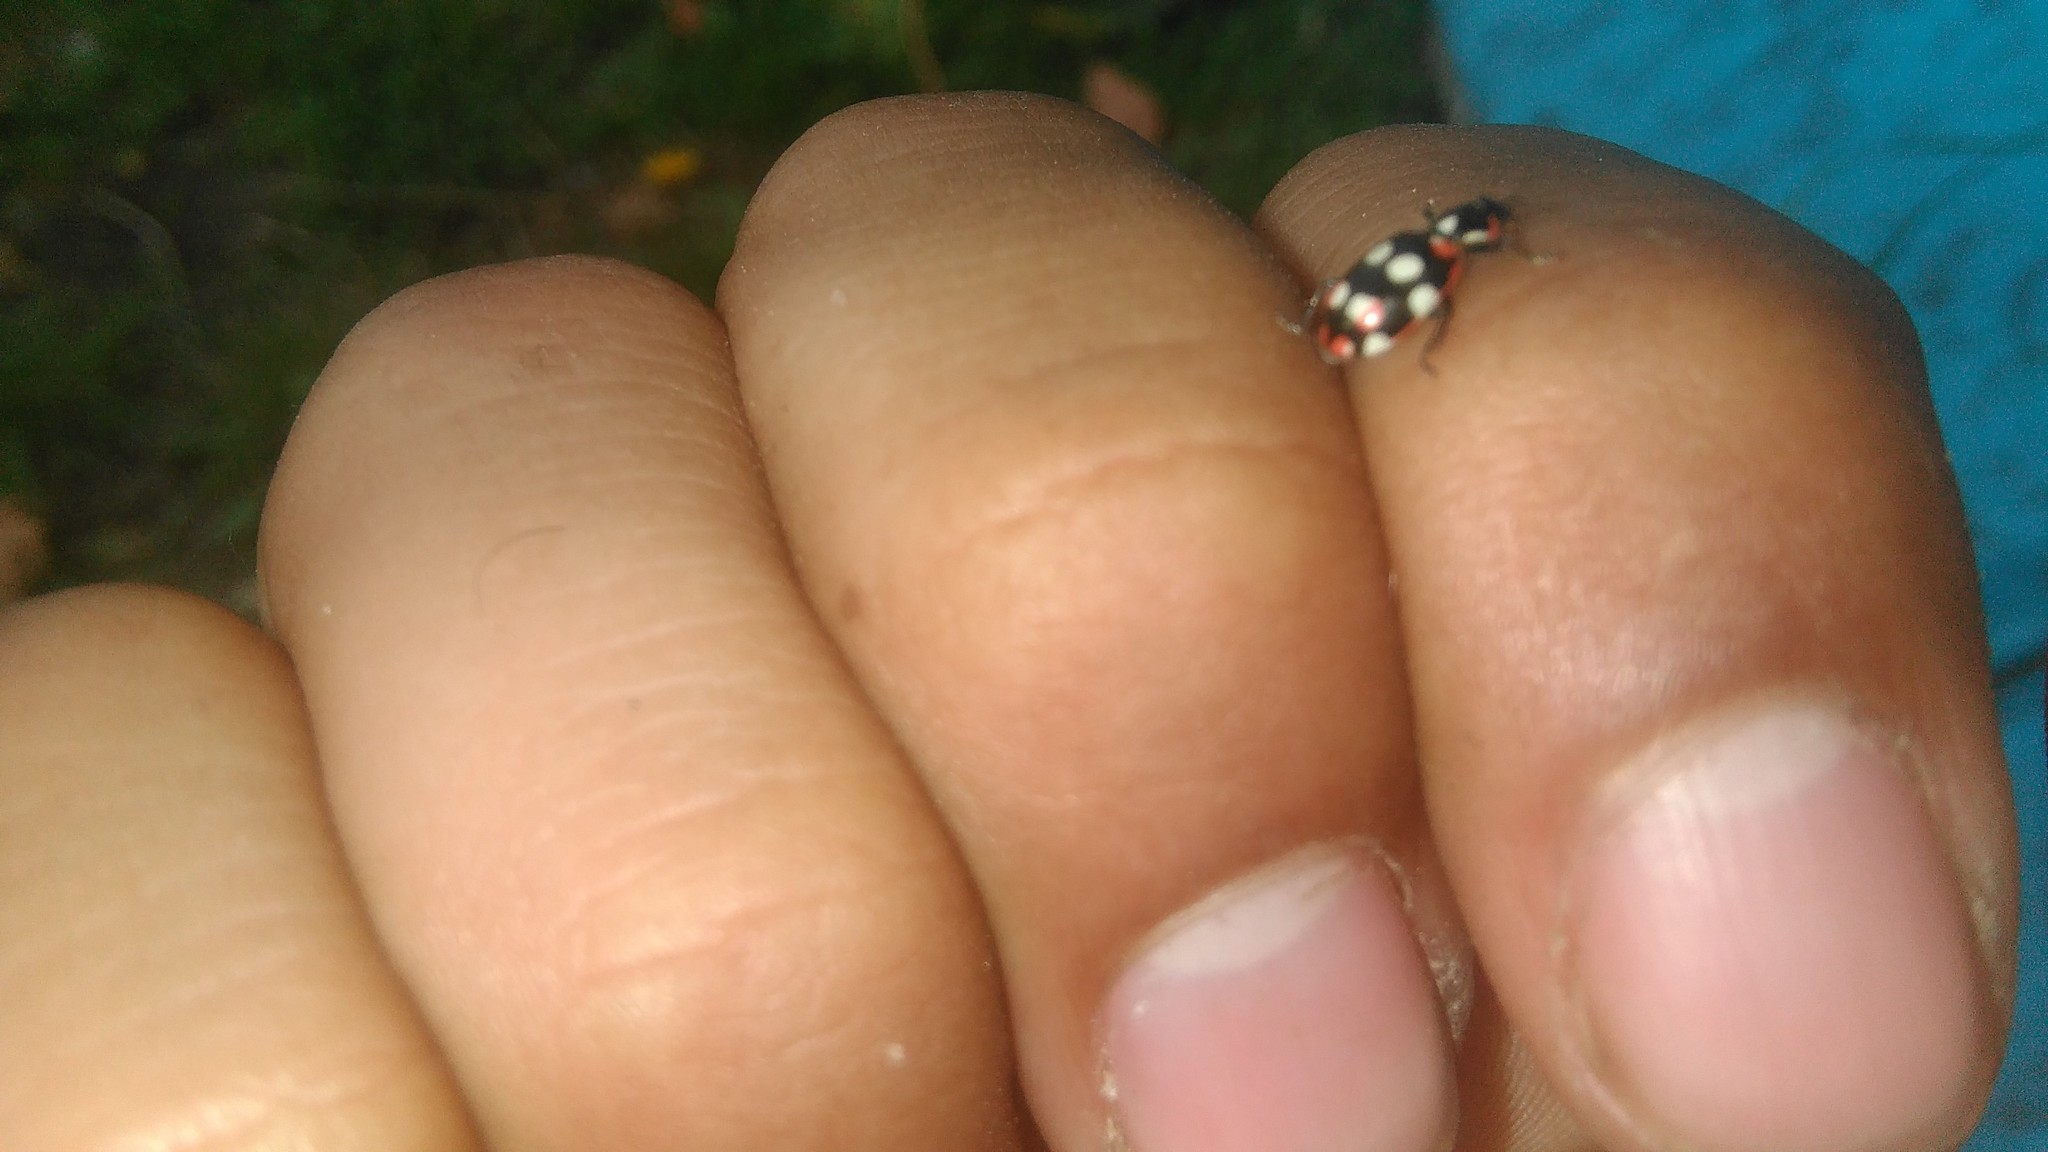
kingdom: Animalia
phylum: Arthropoda
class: Insecta
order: Coleoptera
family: Coccinellidae
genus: Eriopis
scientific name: Eriopis connexa
